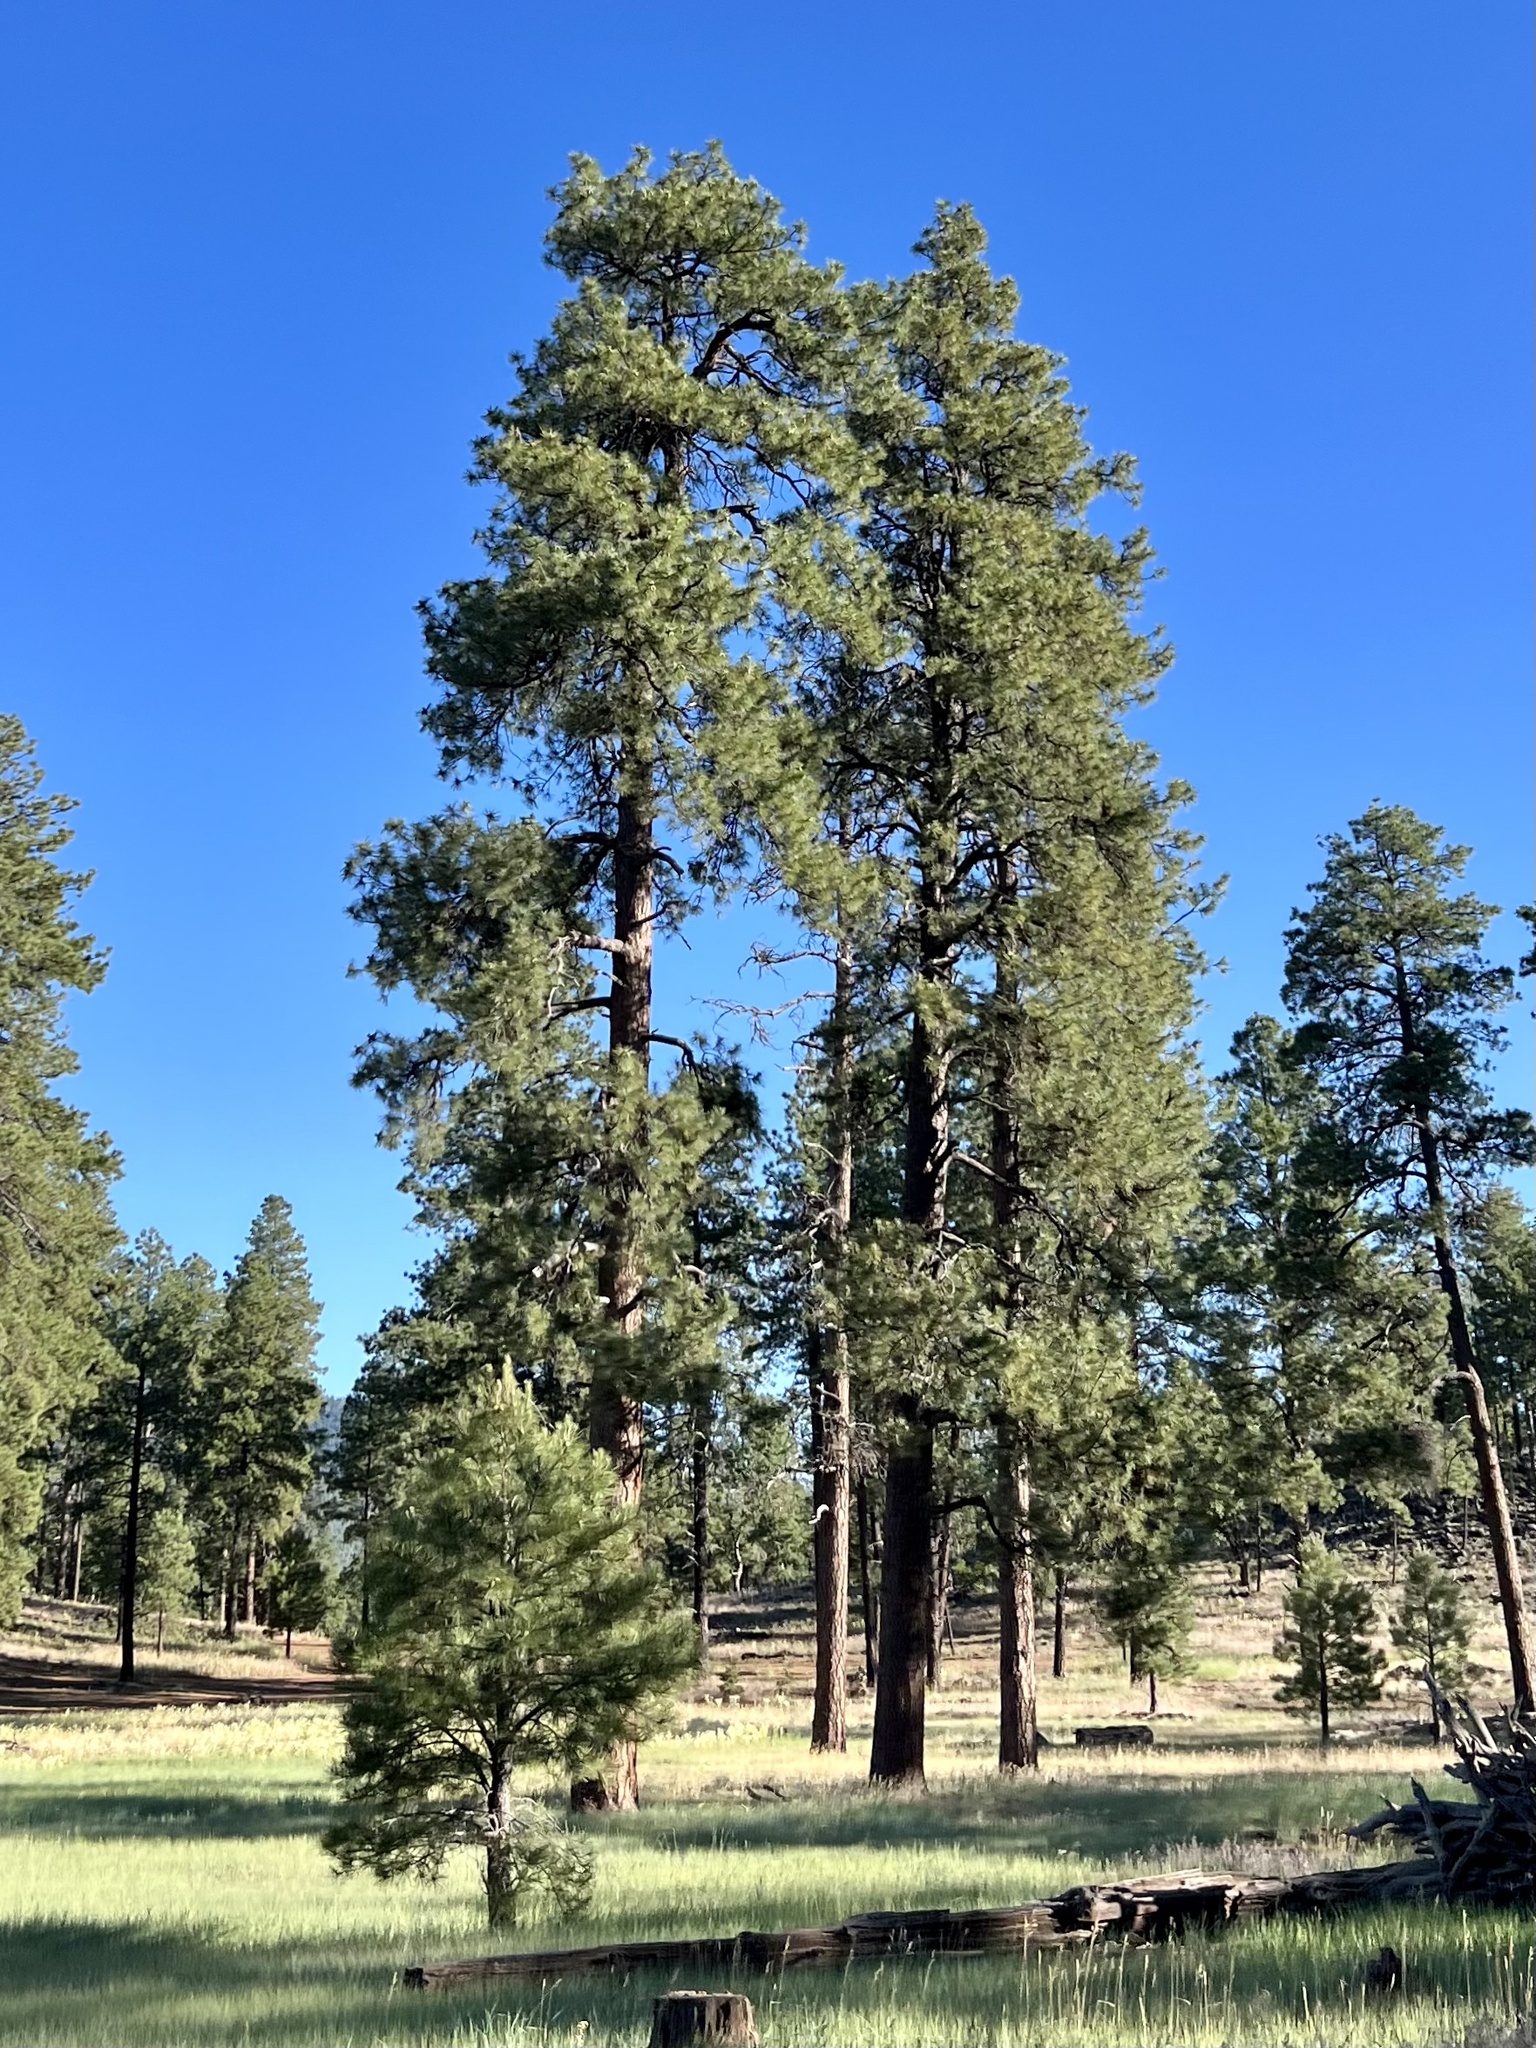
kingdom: Plantae
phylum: Tracheophyta
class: Pinopsida
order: Pinales
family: Pinaceae
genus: Pinus
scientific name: Pinus ponderosa
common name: Western yellow-pine
